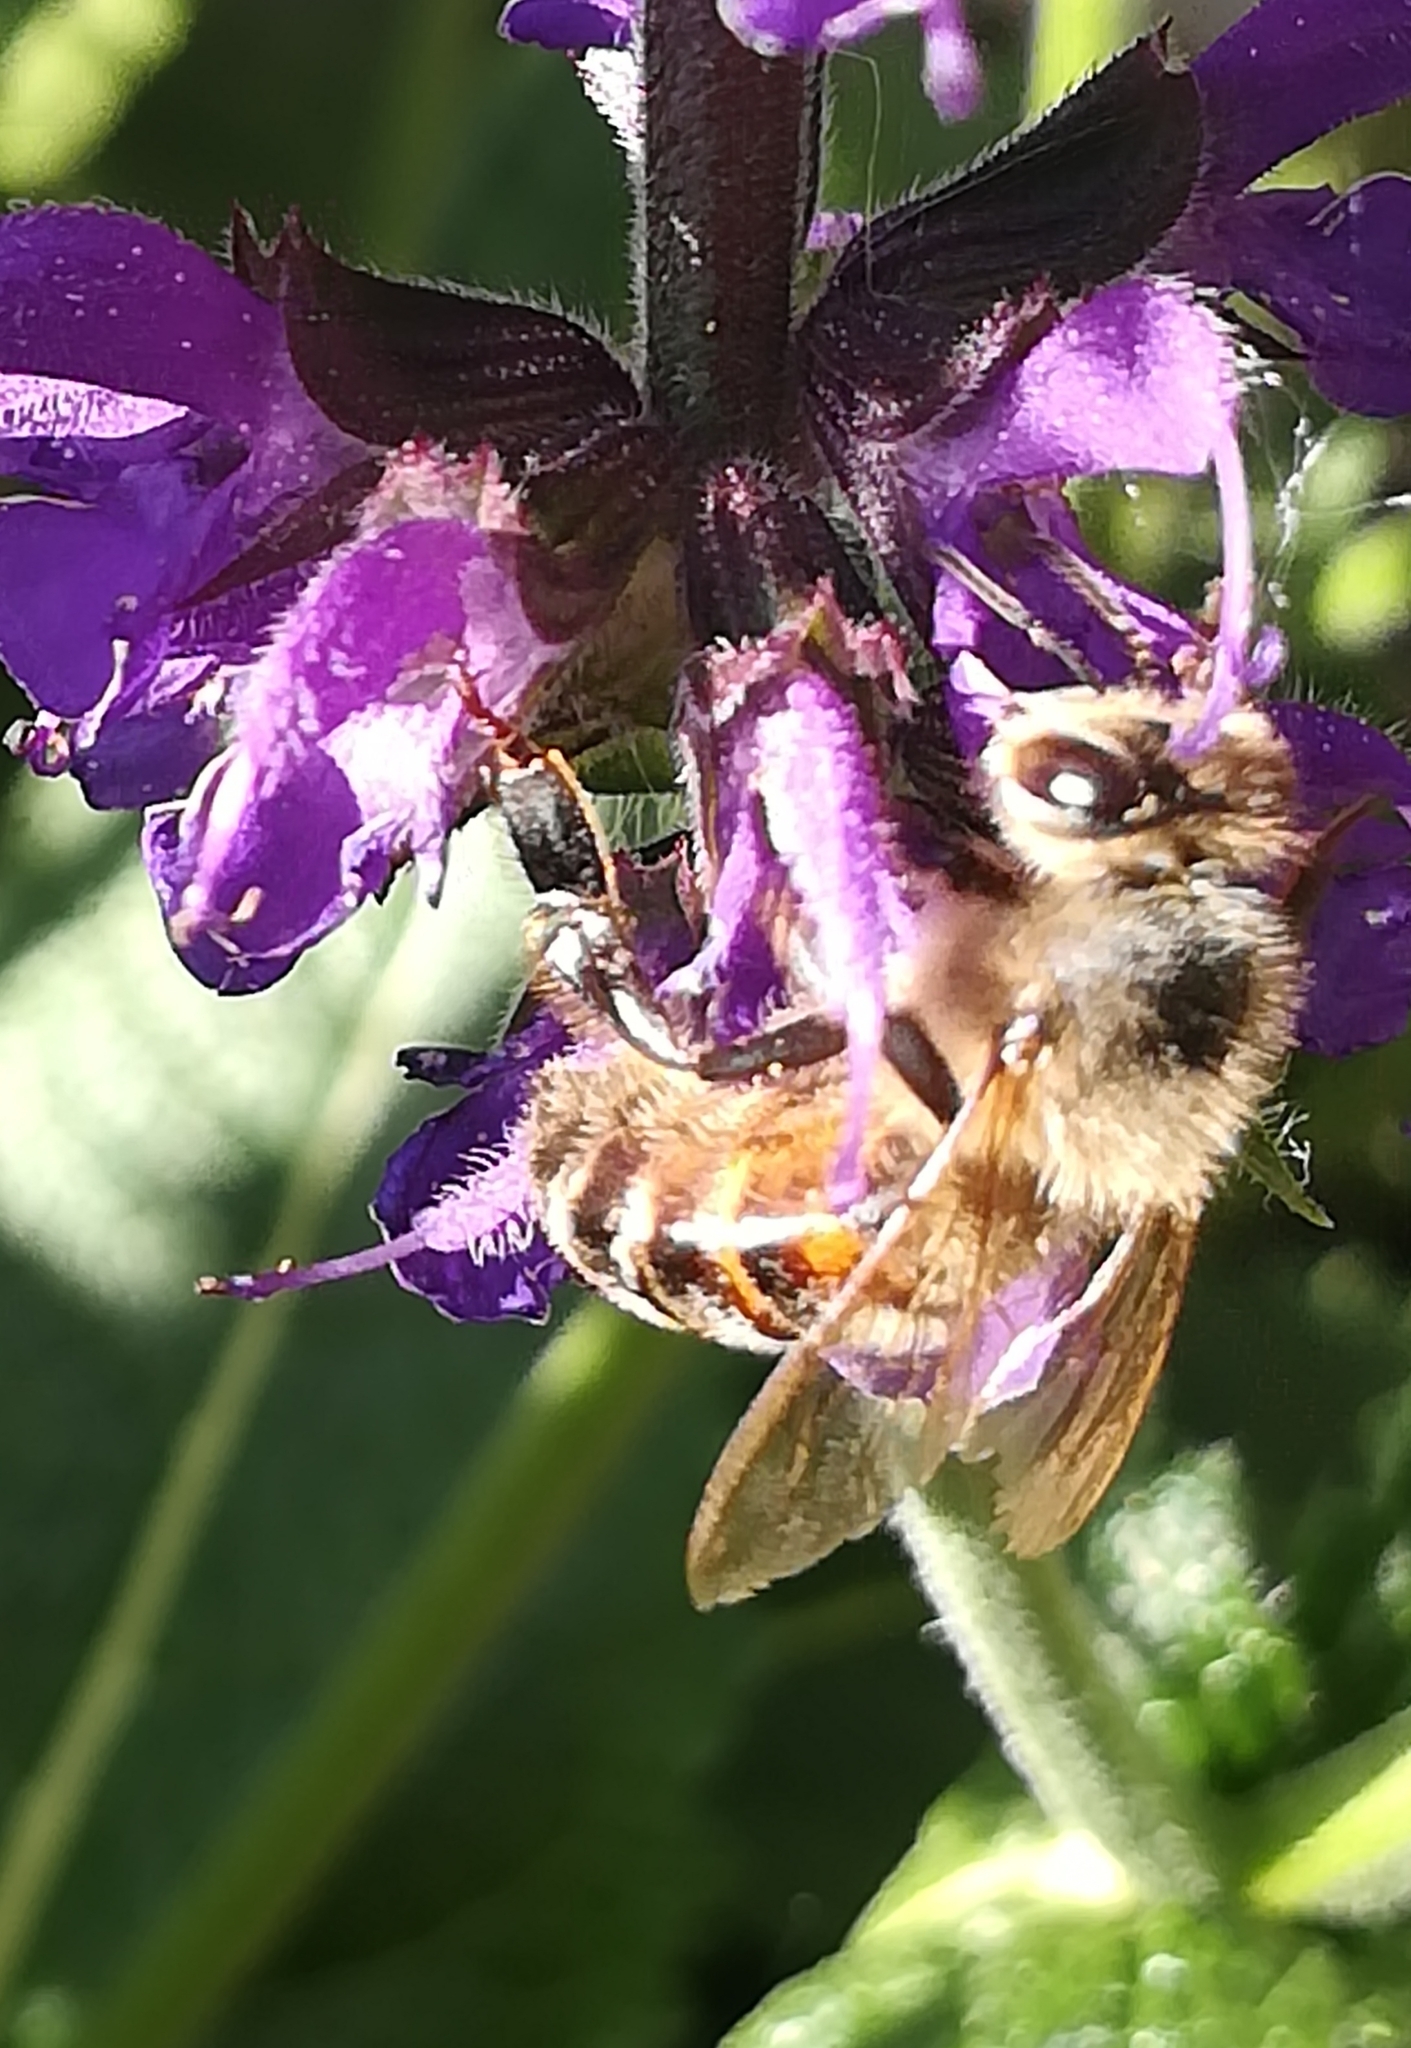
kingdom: Animalia
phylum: Arthropoda
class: Insecta
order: Hymenoptera
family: Apidae
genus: Apis
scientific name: Apis mellifera
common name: Honey bee
